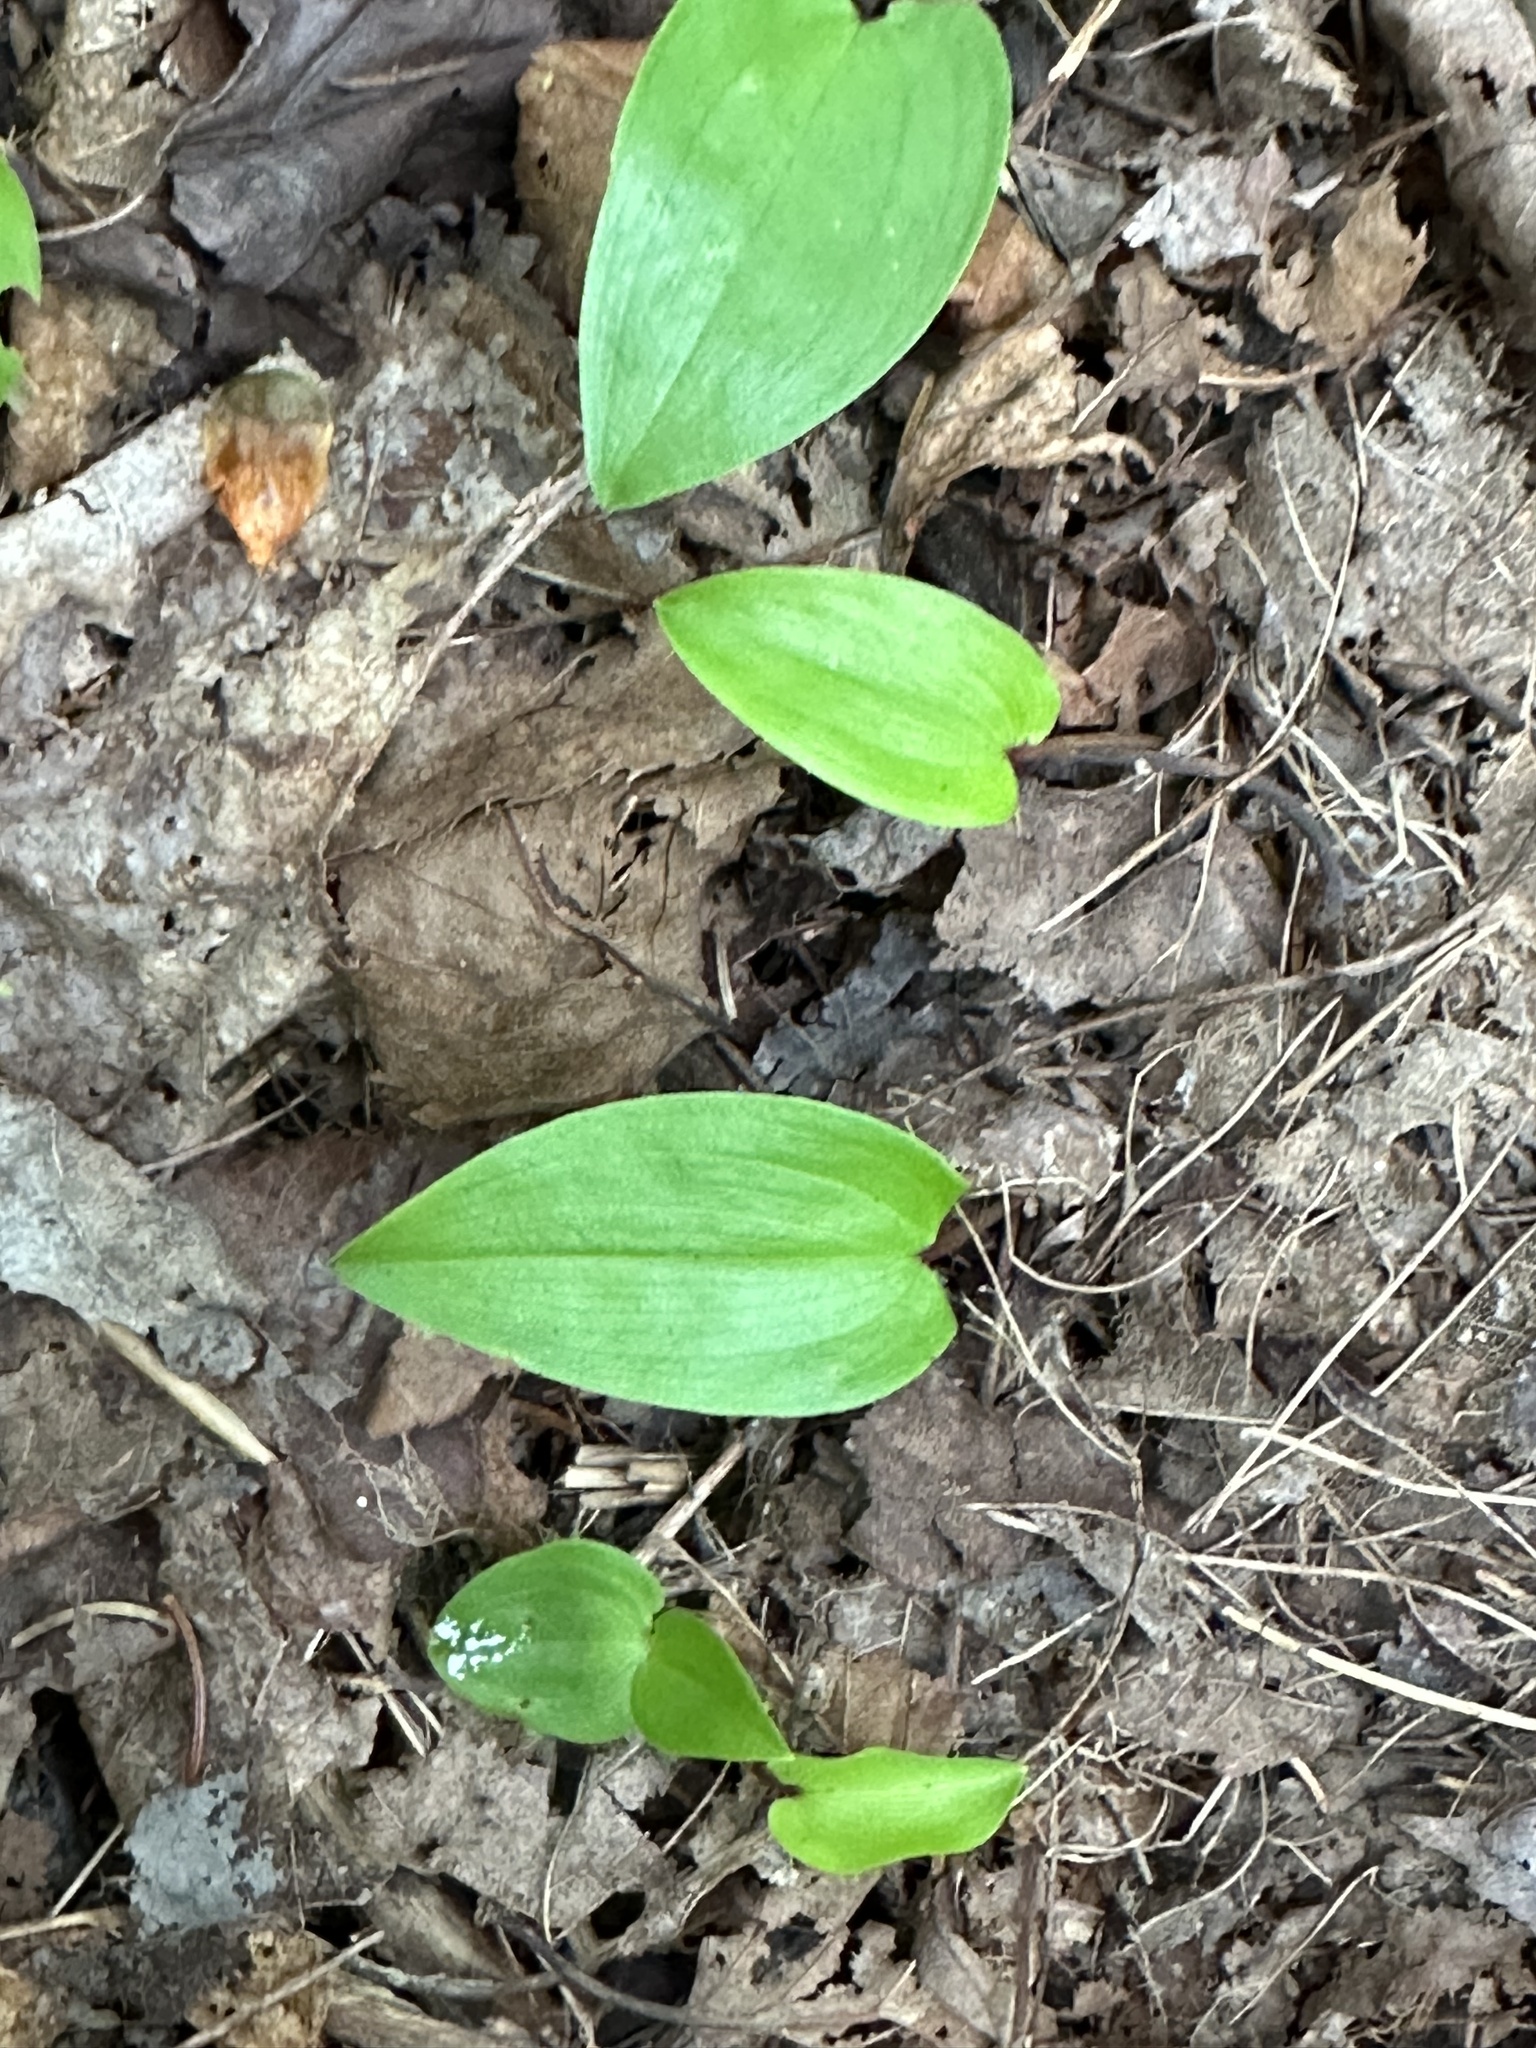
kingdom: Plantae
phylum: Tracheophyta
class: Liliopsida
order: Asparagales
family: Asparagaceae
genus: Maianthemum
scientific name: Maianthemum canadense
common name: False lily-of-the-valley
